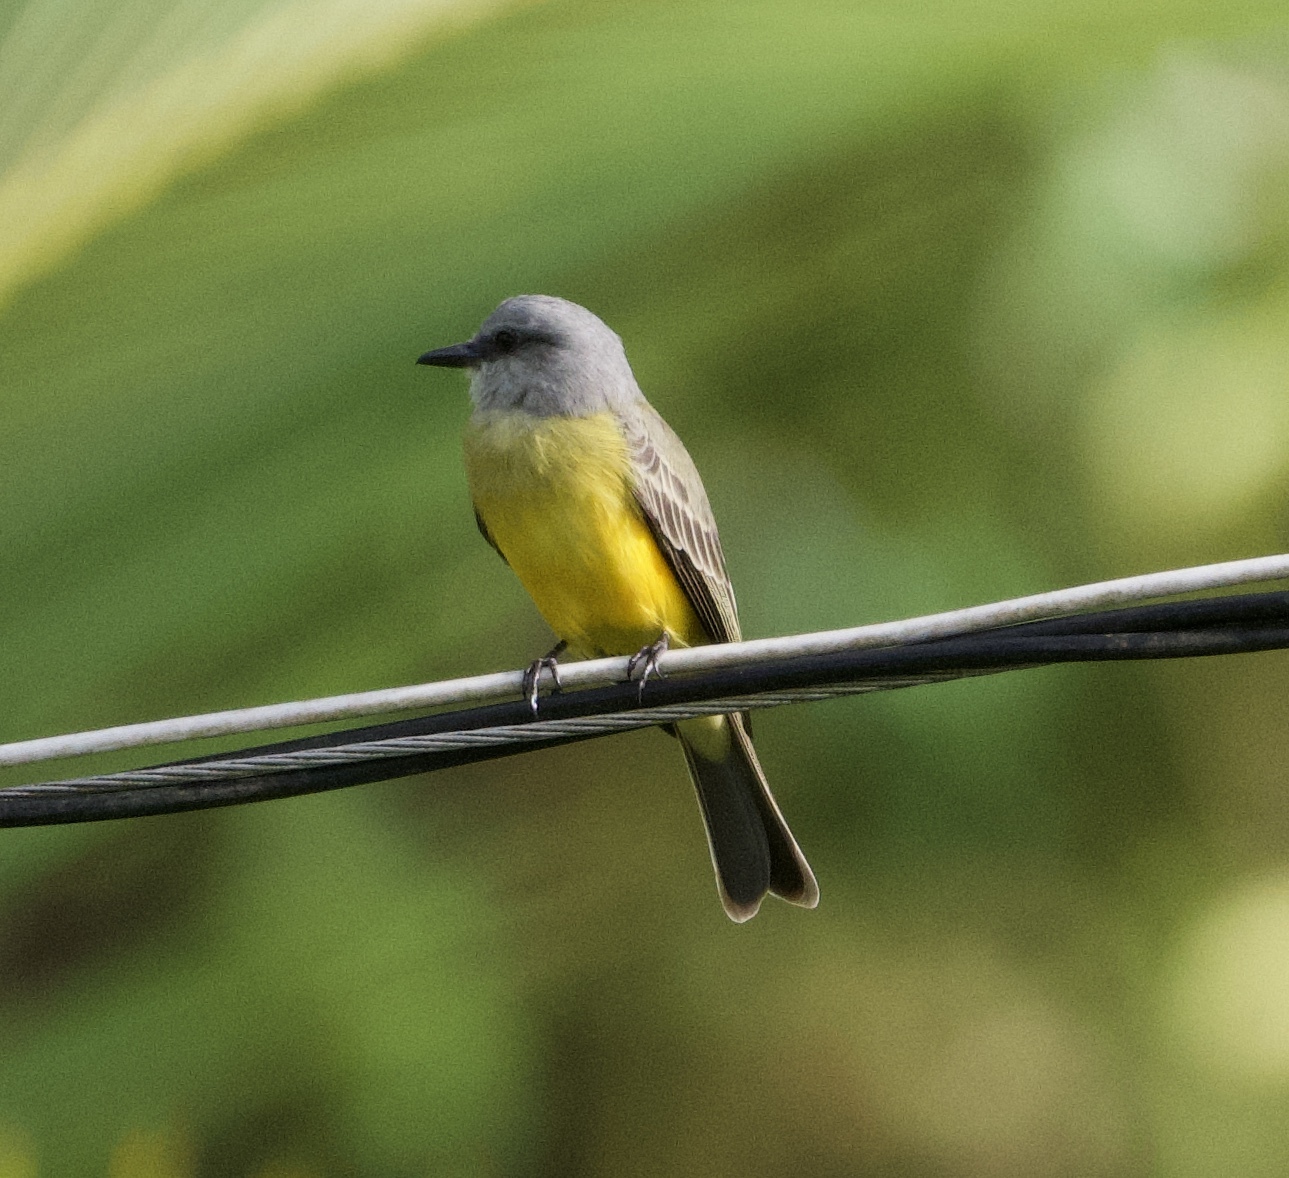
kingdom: Animalia
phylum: Chordata
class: Aves
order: Passeriformes
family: Tyrannidae
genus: Tyrannus
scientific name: Tyrannus melancholicus
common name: Tropical kingbird
